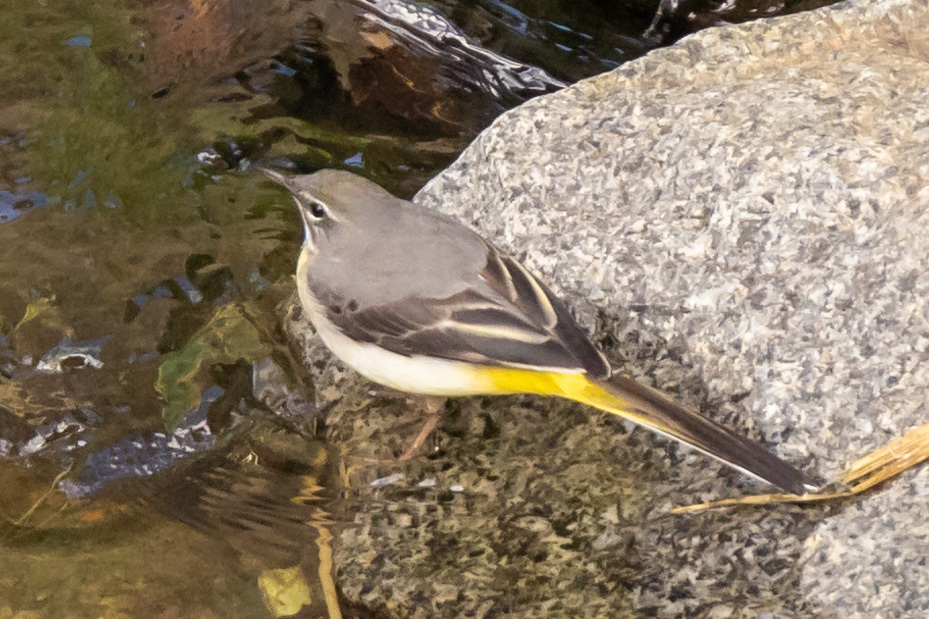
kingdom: Animalia
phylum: Chordata
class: Aves
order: Passeriformes
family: Motacillidae
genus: Motacilla
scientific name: Motacilla cinerea
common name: Grey wagtail
